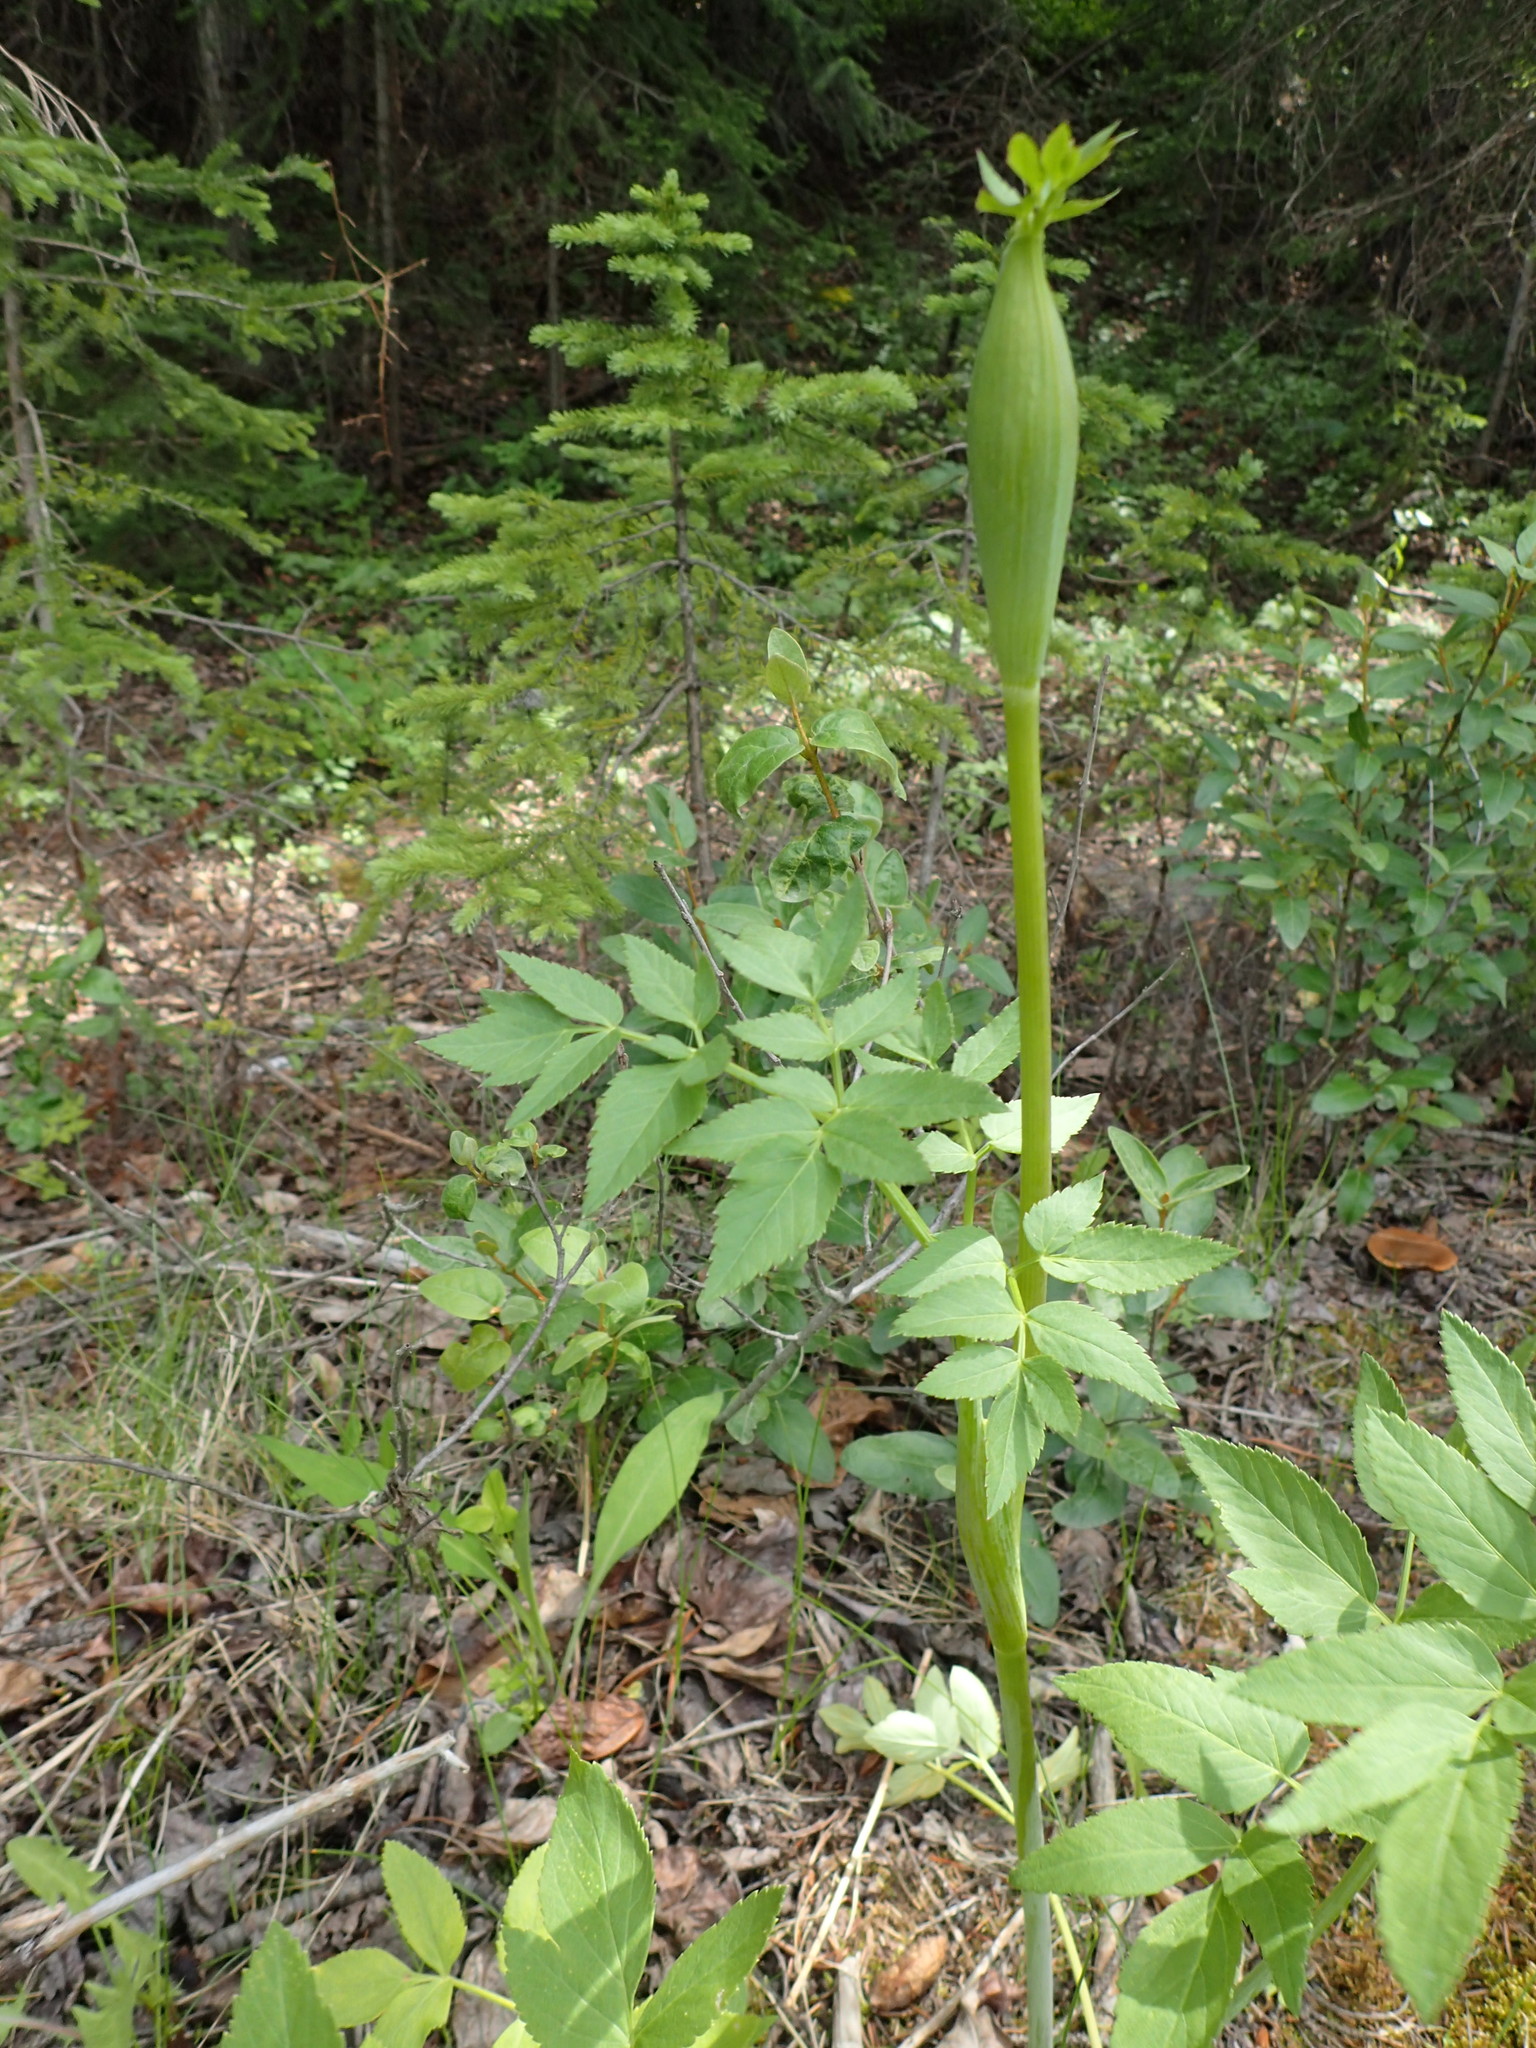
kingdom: Plantae
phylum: Tracheophyta
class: Magnoliopsida
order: Apiales
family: Apiaceae
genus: Angelica
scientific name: Angelica arguta
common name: Lyall's angelica
